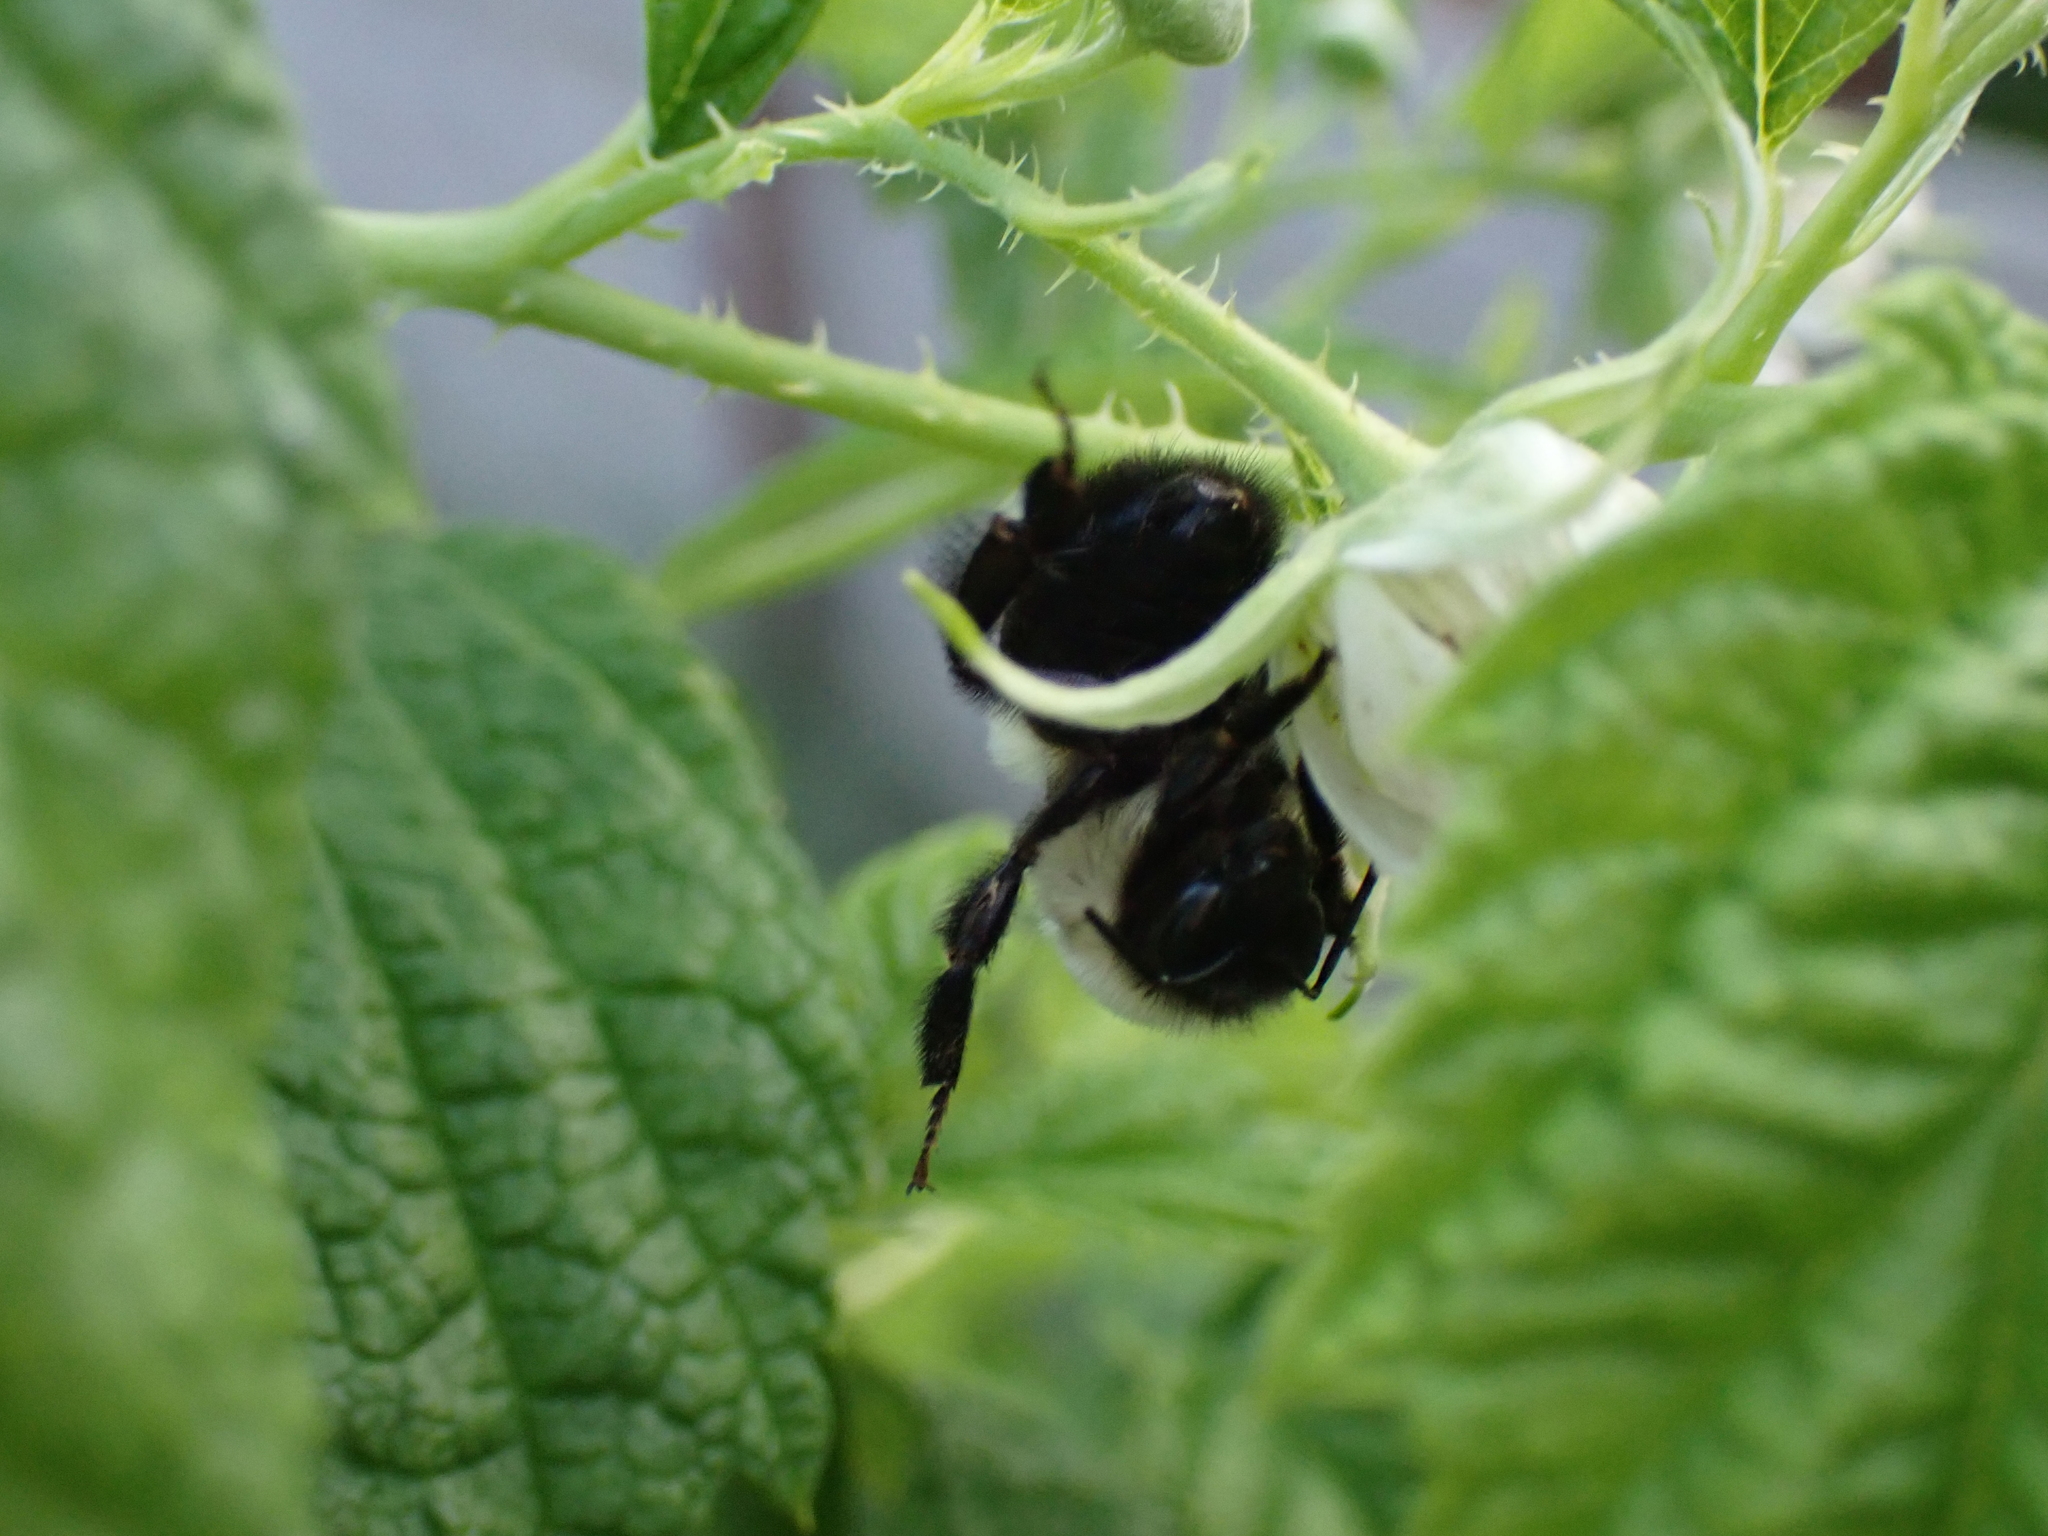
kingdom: Animalia
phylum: Arthropoda
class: Insecta
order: Hymenoptera
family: Apidae
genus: Bombus
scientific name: Bombus impatiens
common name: Common eastern bumble bee
